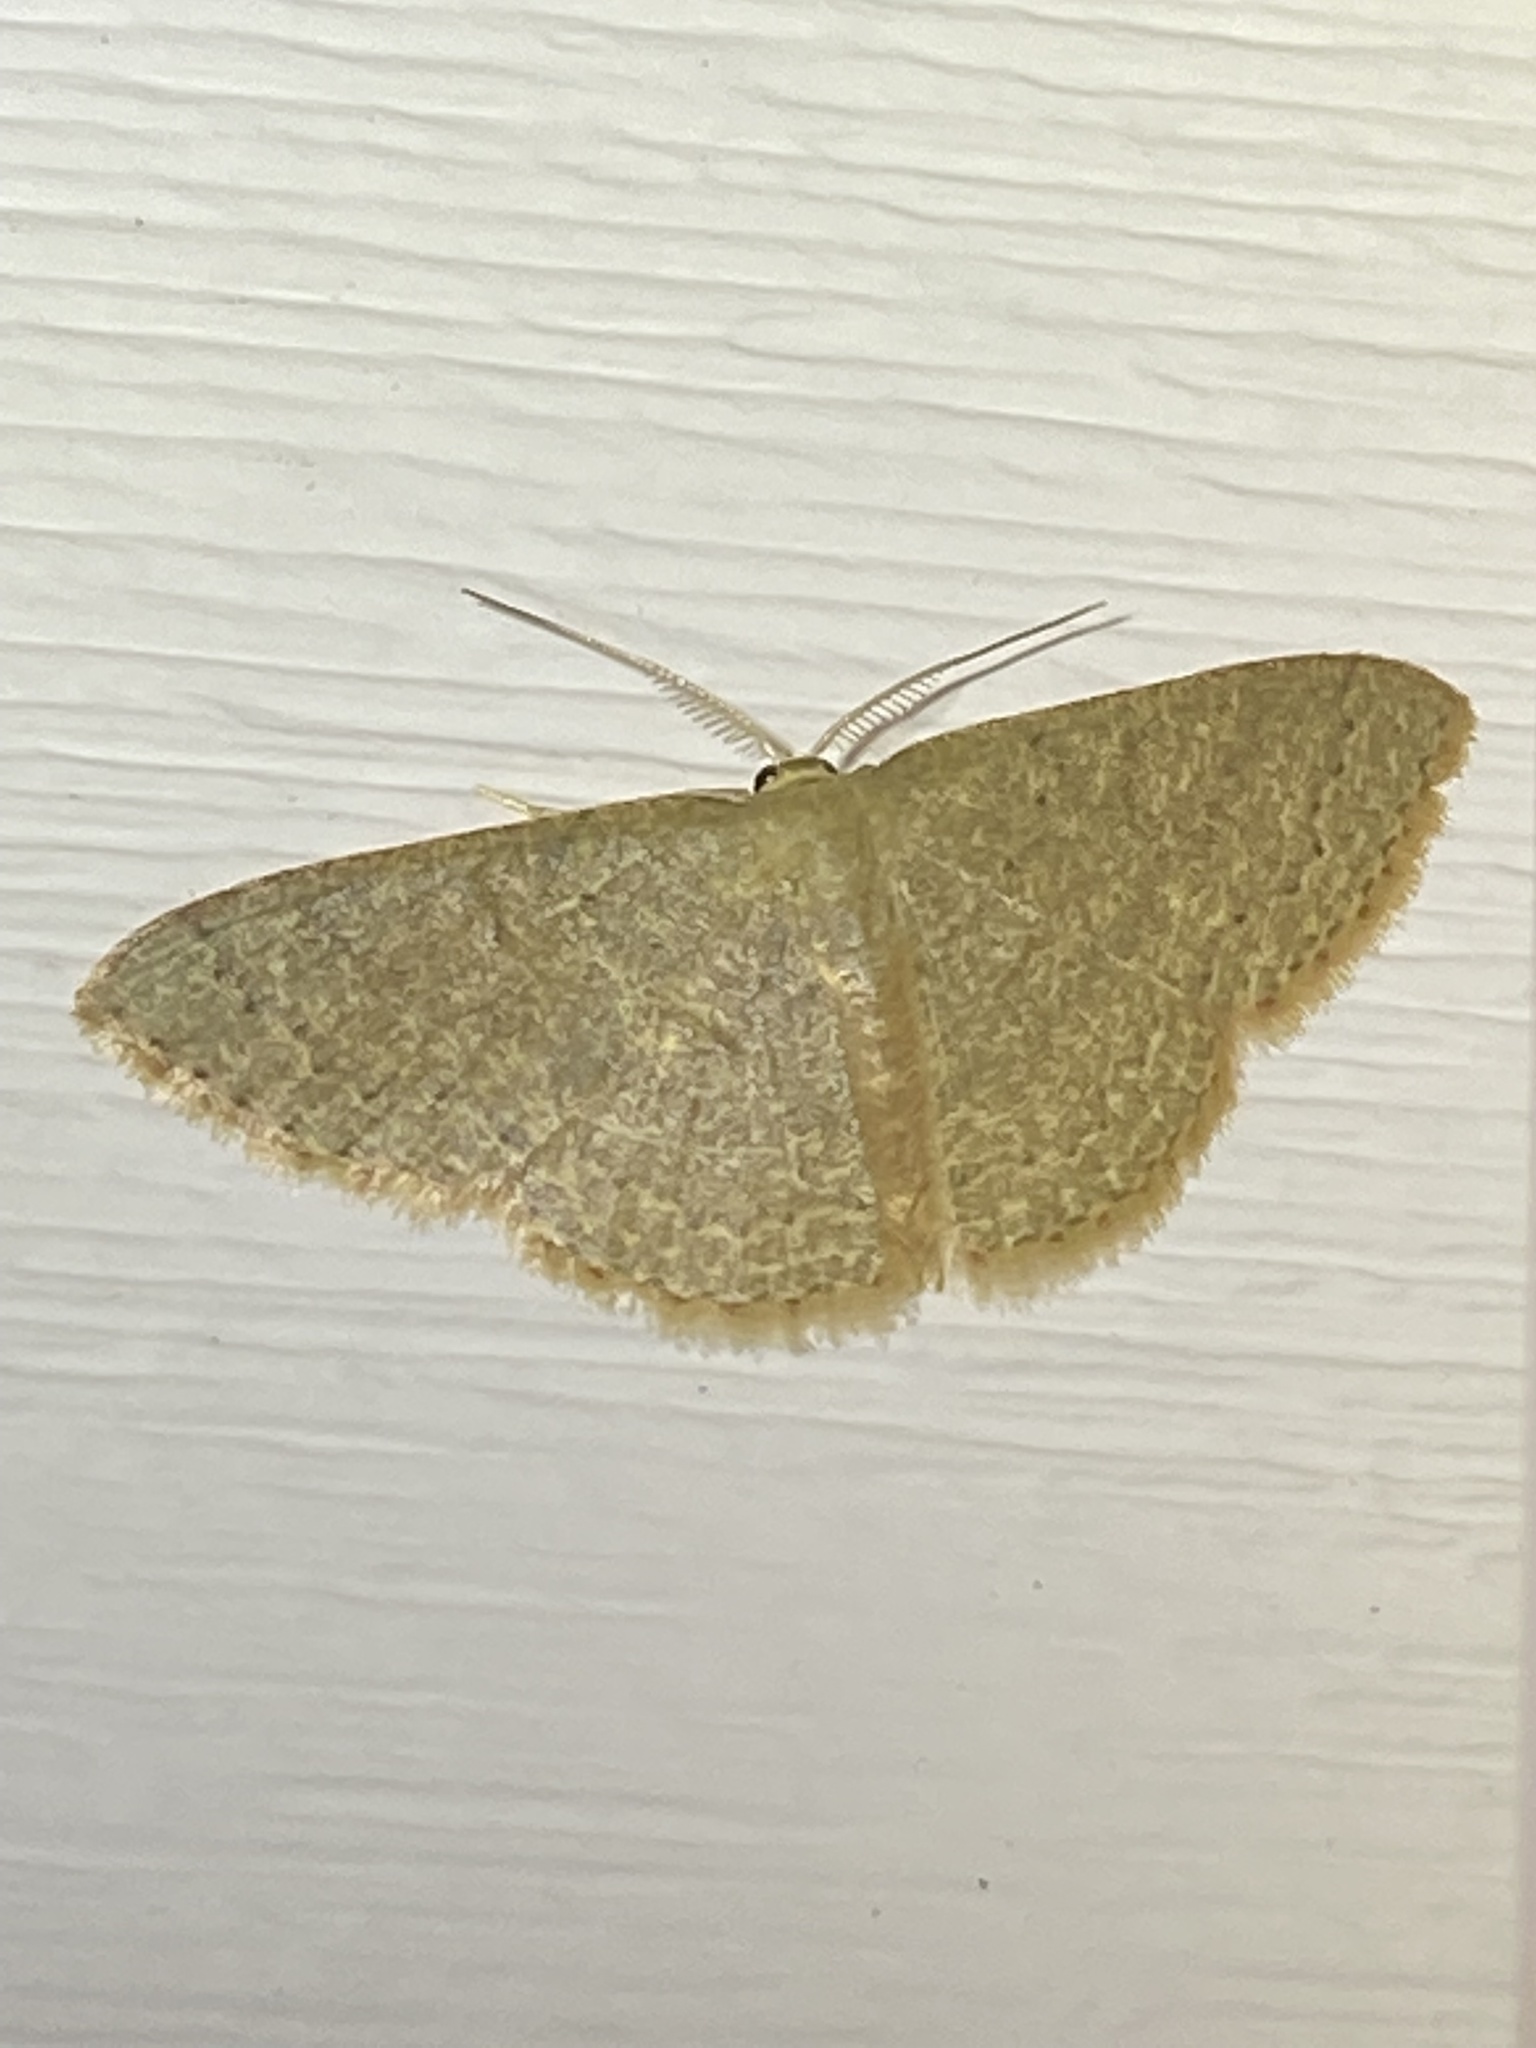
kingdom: Animalia
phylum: Arthropoda
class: Insecta
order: Lepidoptera
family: Geometridae
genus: Pleuroprucha
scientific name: Pleuroprucha insulsaria
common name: Common tan wave
